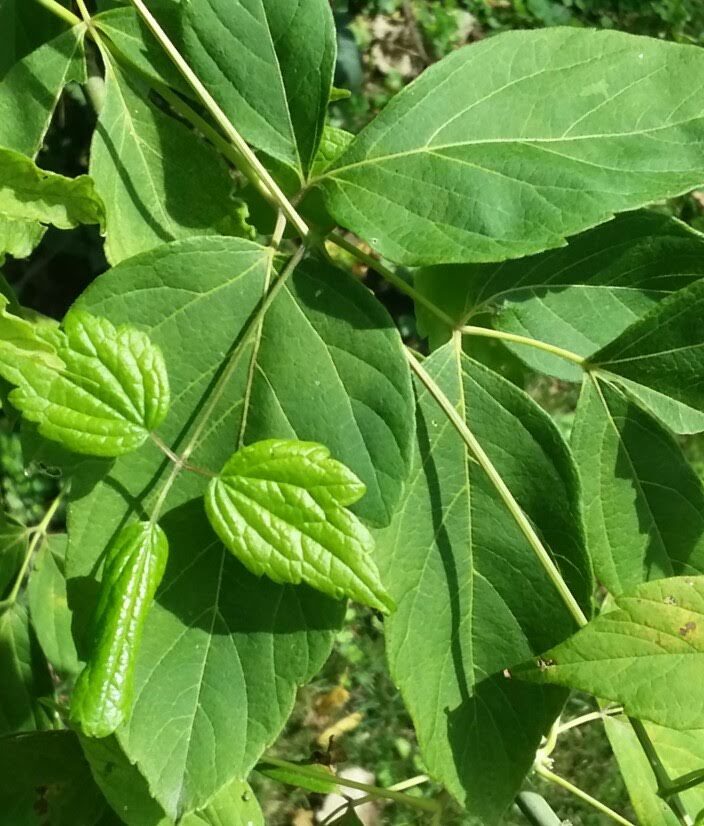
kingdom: Plantae
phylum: Tracheophyta
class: Magnoliopsida
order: Sapindales
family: Sapindaceae
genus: Acer
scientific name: Acer negundo
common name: Ashleaf maple
